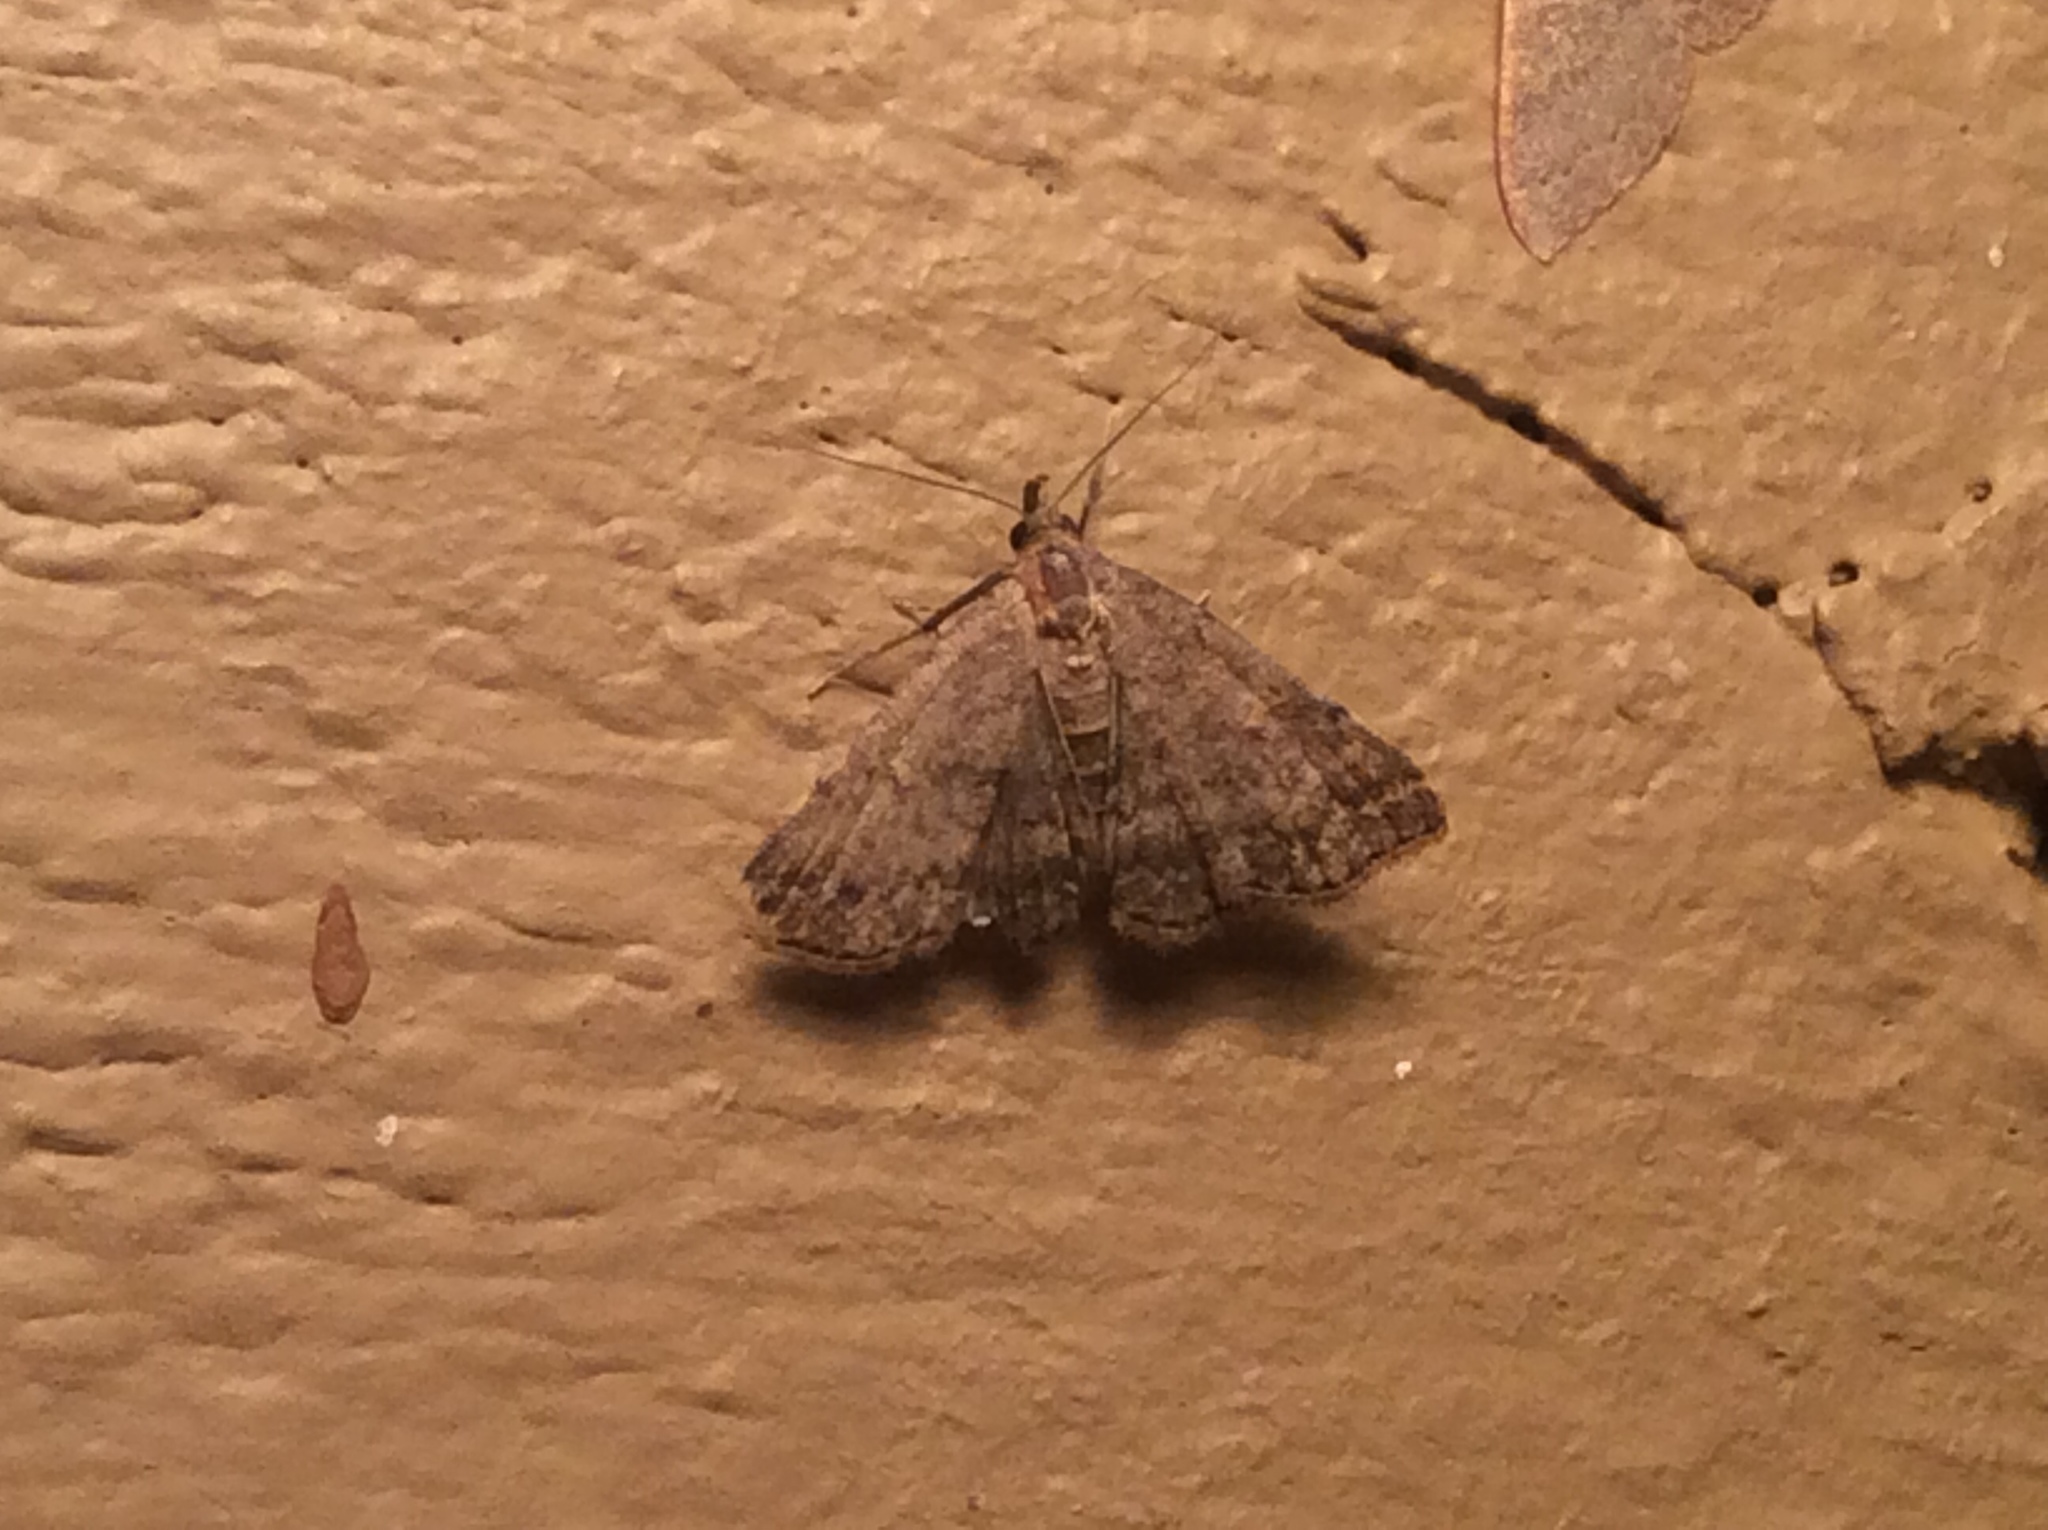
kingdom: Animalia
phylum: Arthropoda
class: Insecta
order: Lepidoptera
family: Erebidae
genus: Tetanolita
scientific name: Tetanolita floridana
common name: Florida tetanolita moth
